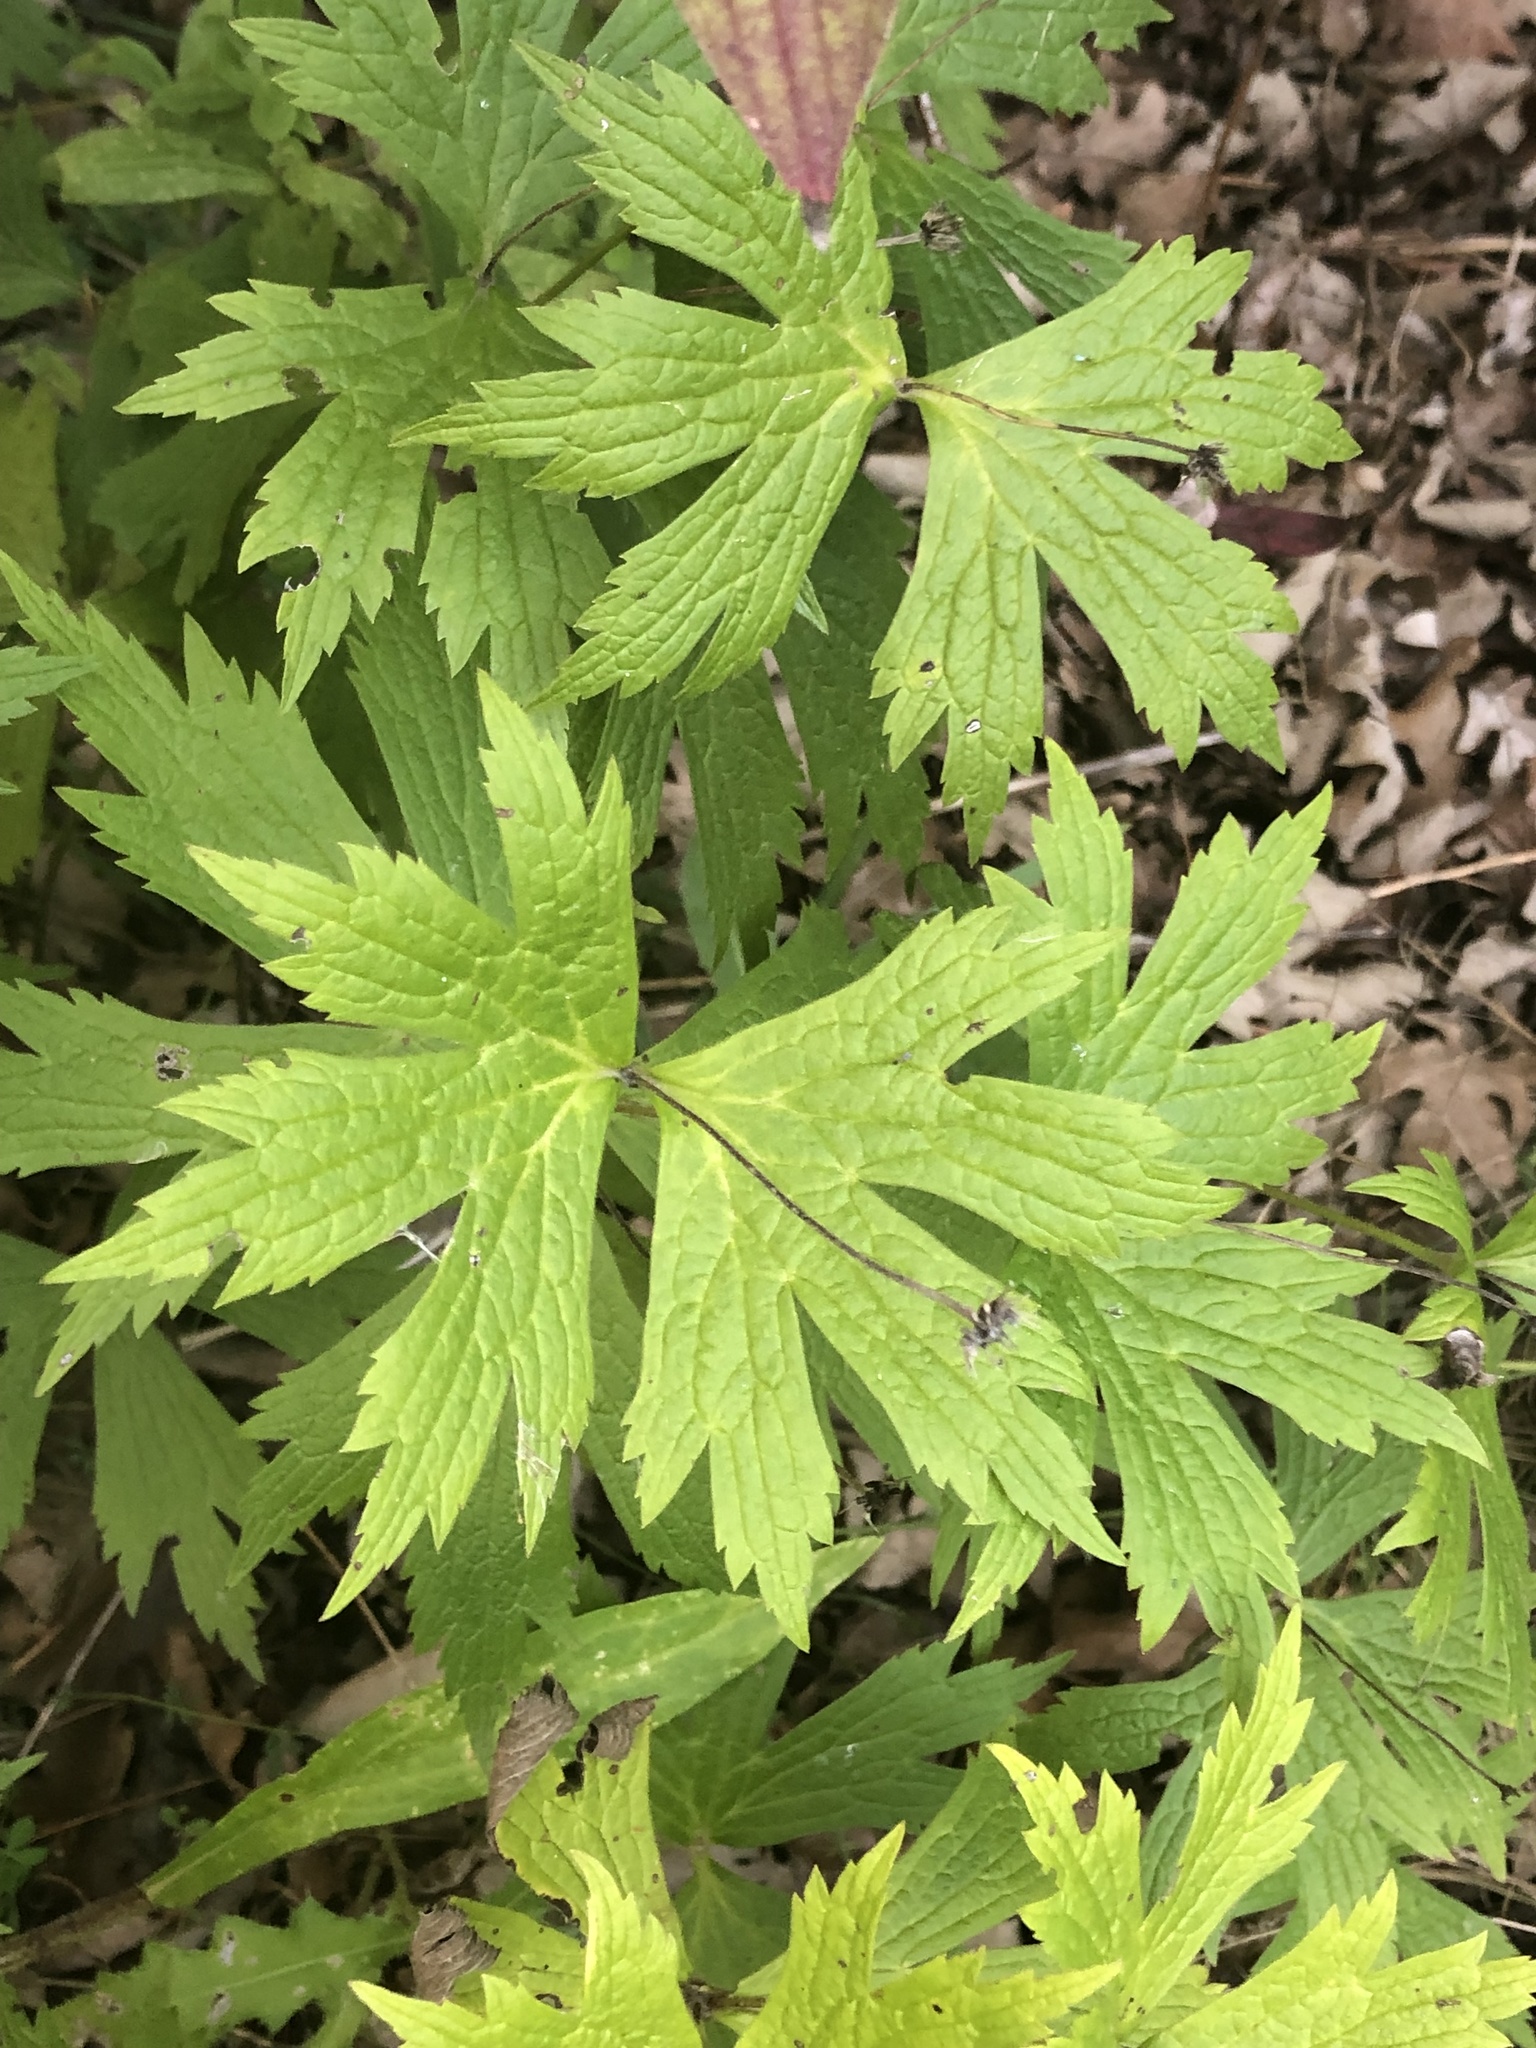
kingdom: Plantae
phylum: Tracheophyta
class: Magnoliopsida
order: Ranunculales
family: Ranunculaceae
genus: Anemonastrum
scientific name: Anemonastrum canadense
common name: Canada anemone
